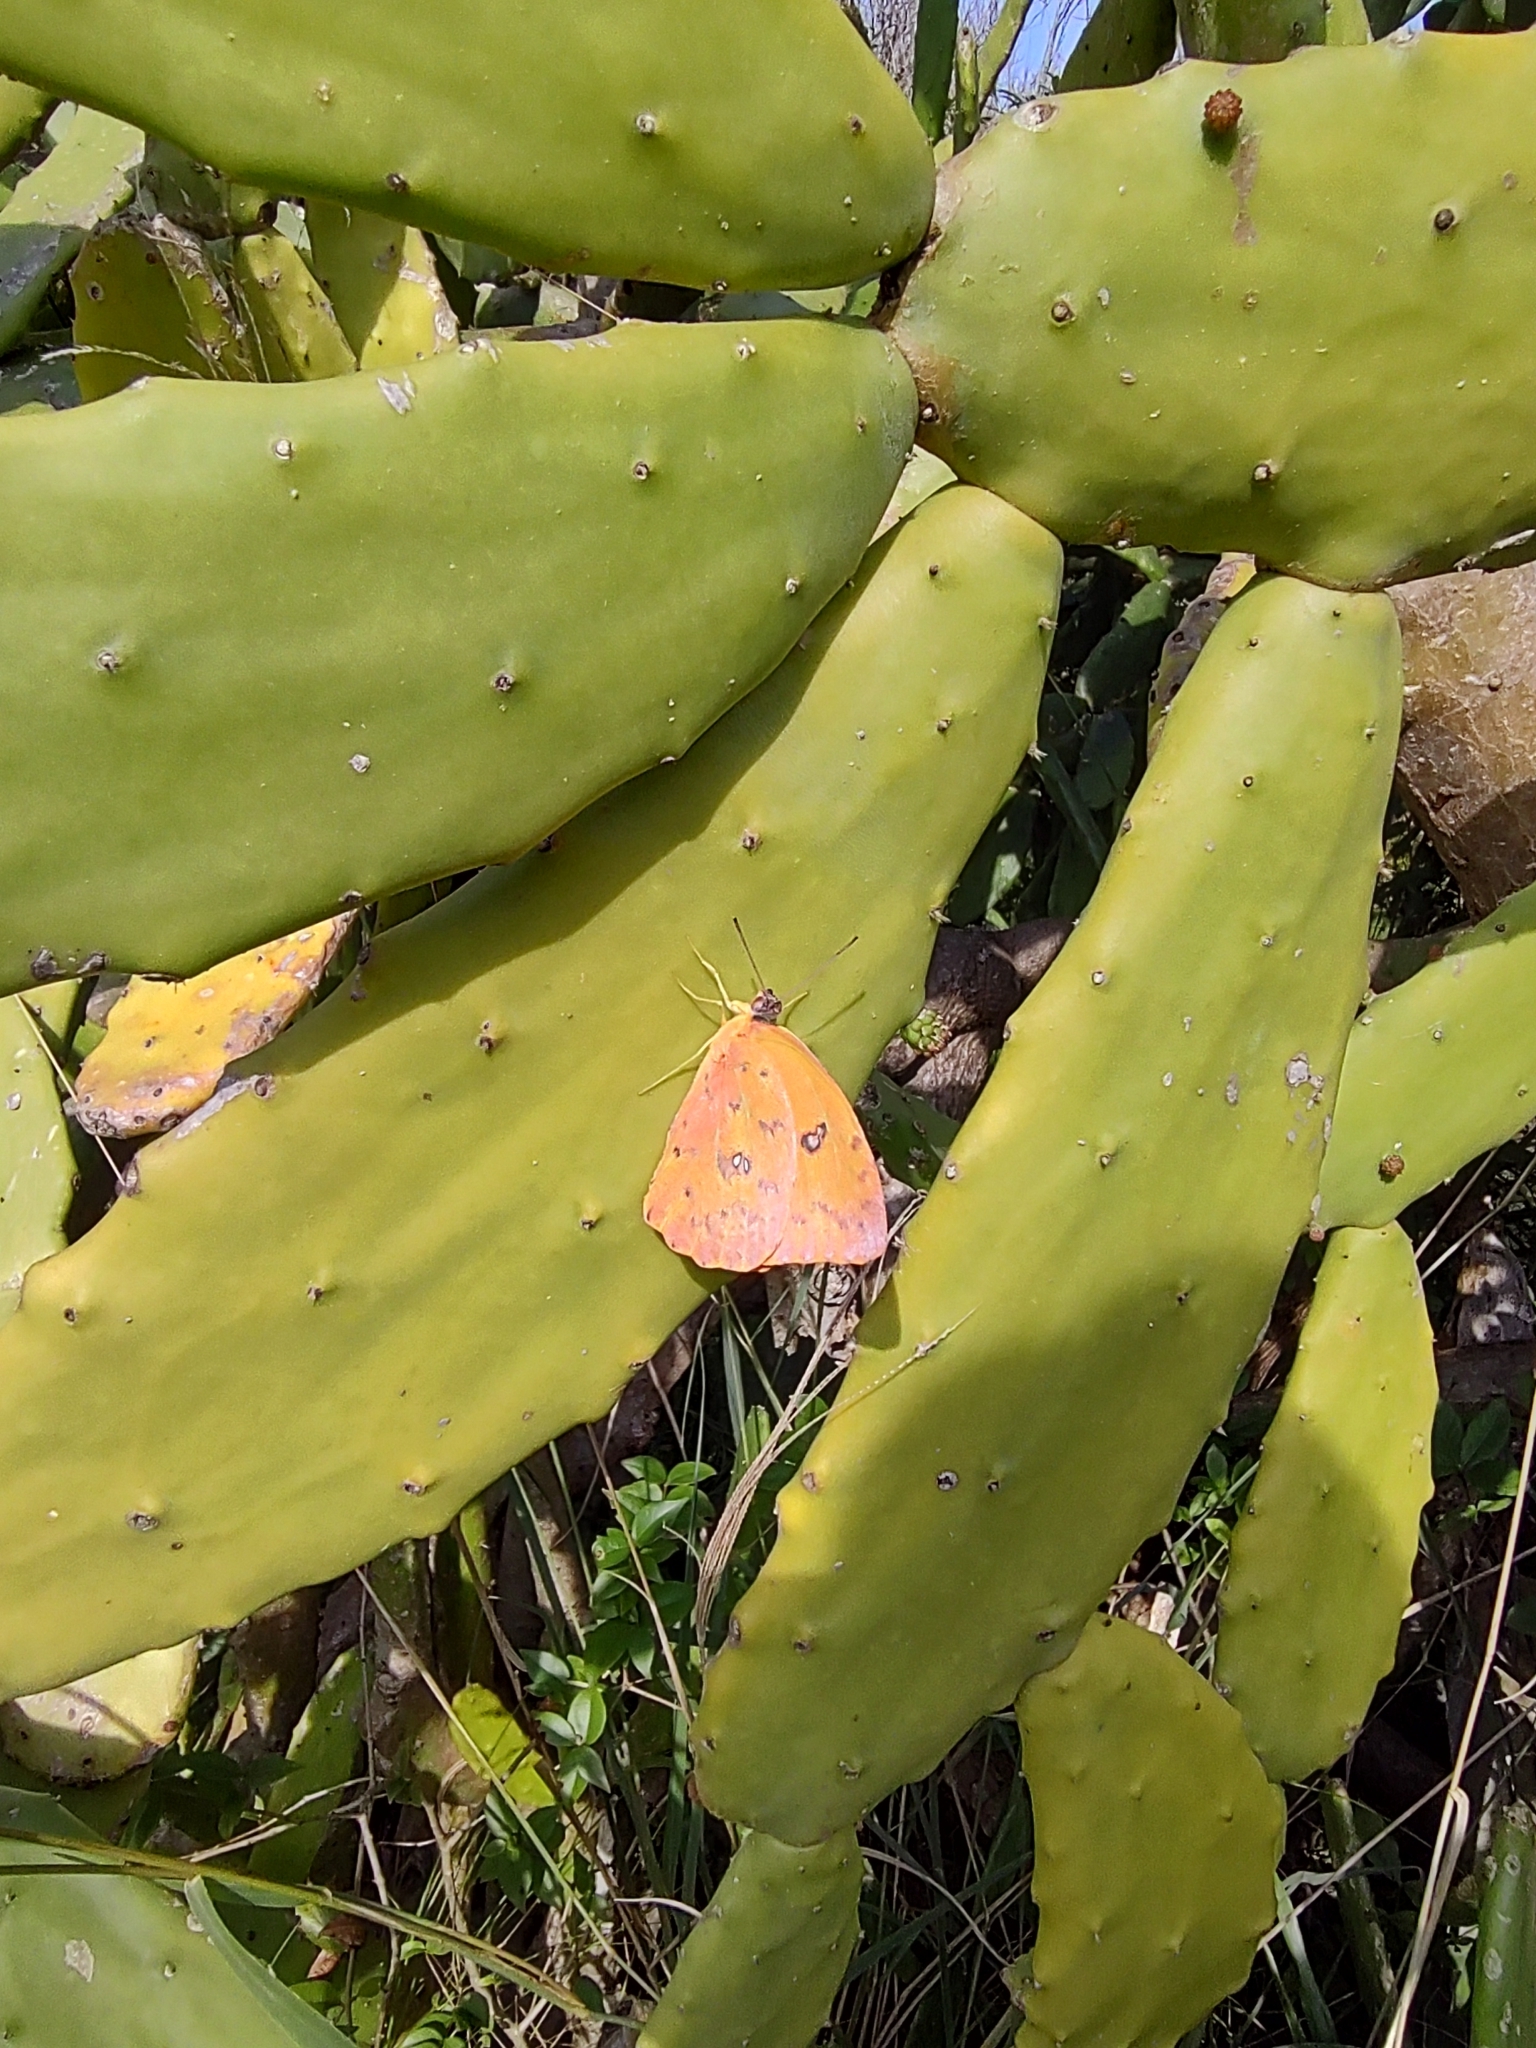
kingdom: Animalia
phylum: Arthropoda
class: Insecta
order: Lepidoptera
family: Pieridae
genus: Phoebis
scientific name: Phoebis argante
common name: Apricot sulphur
